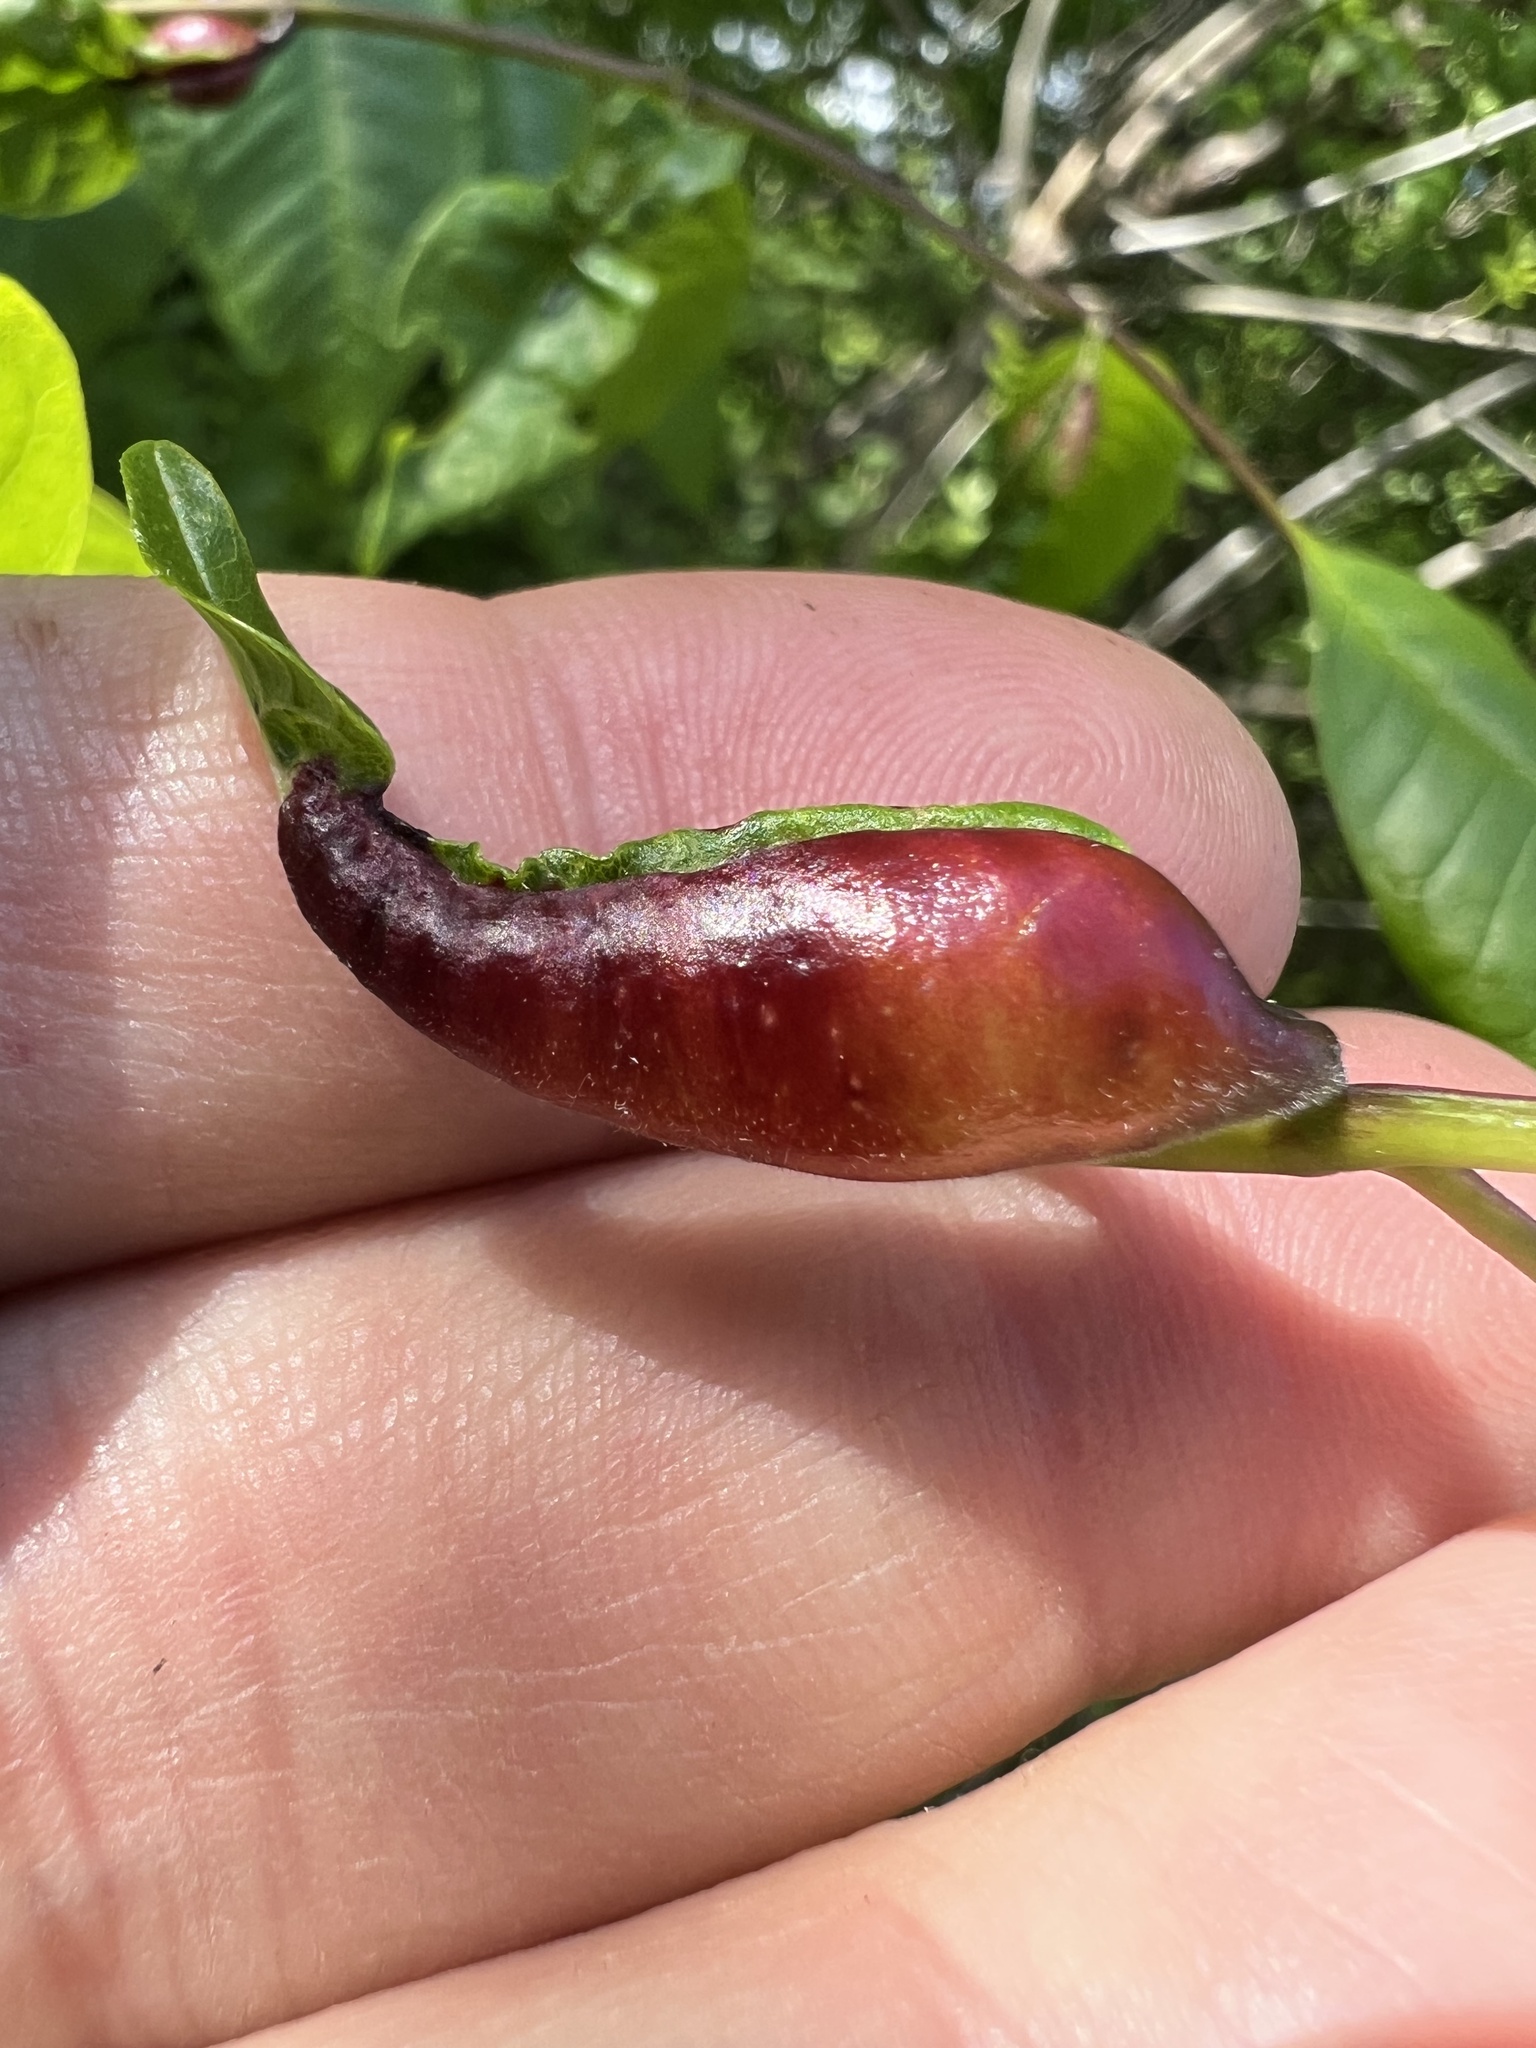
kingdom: Animalia
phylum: Arthropoda
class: Insecta
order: Diptera
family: Cecidomyiidae
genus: Dasineura
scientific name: Dasineura tumidosae
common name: Ash petiole gall midge
